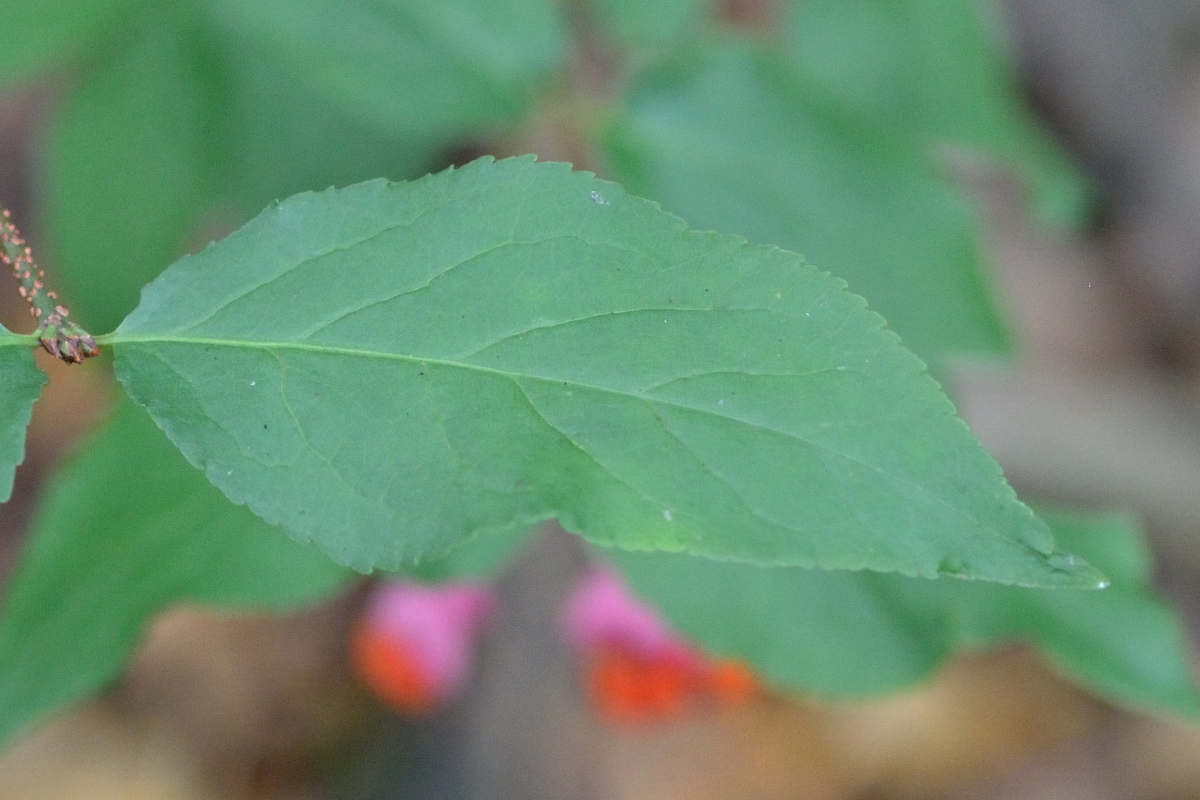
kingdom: Plantae
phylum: Tracheophyta
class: Magnoliopsida
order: Celastrales
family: Celastraceae
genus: Euonymus
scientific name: Euonymus verrucosus
